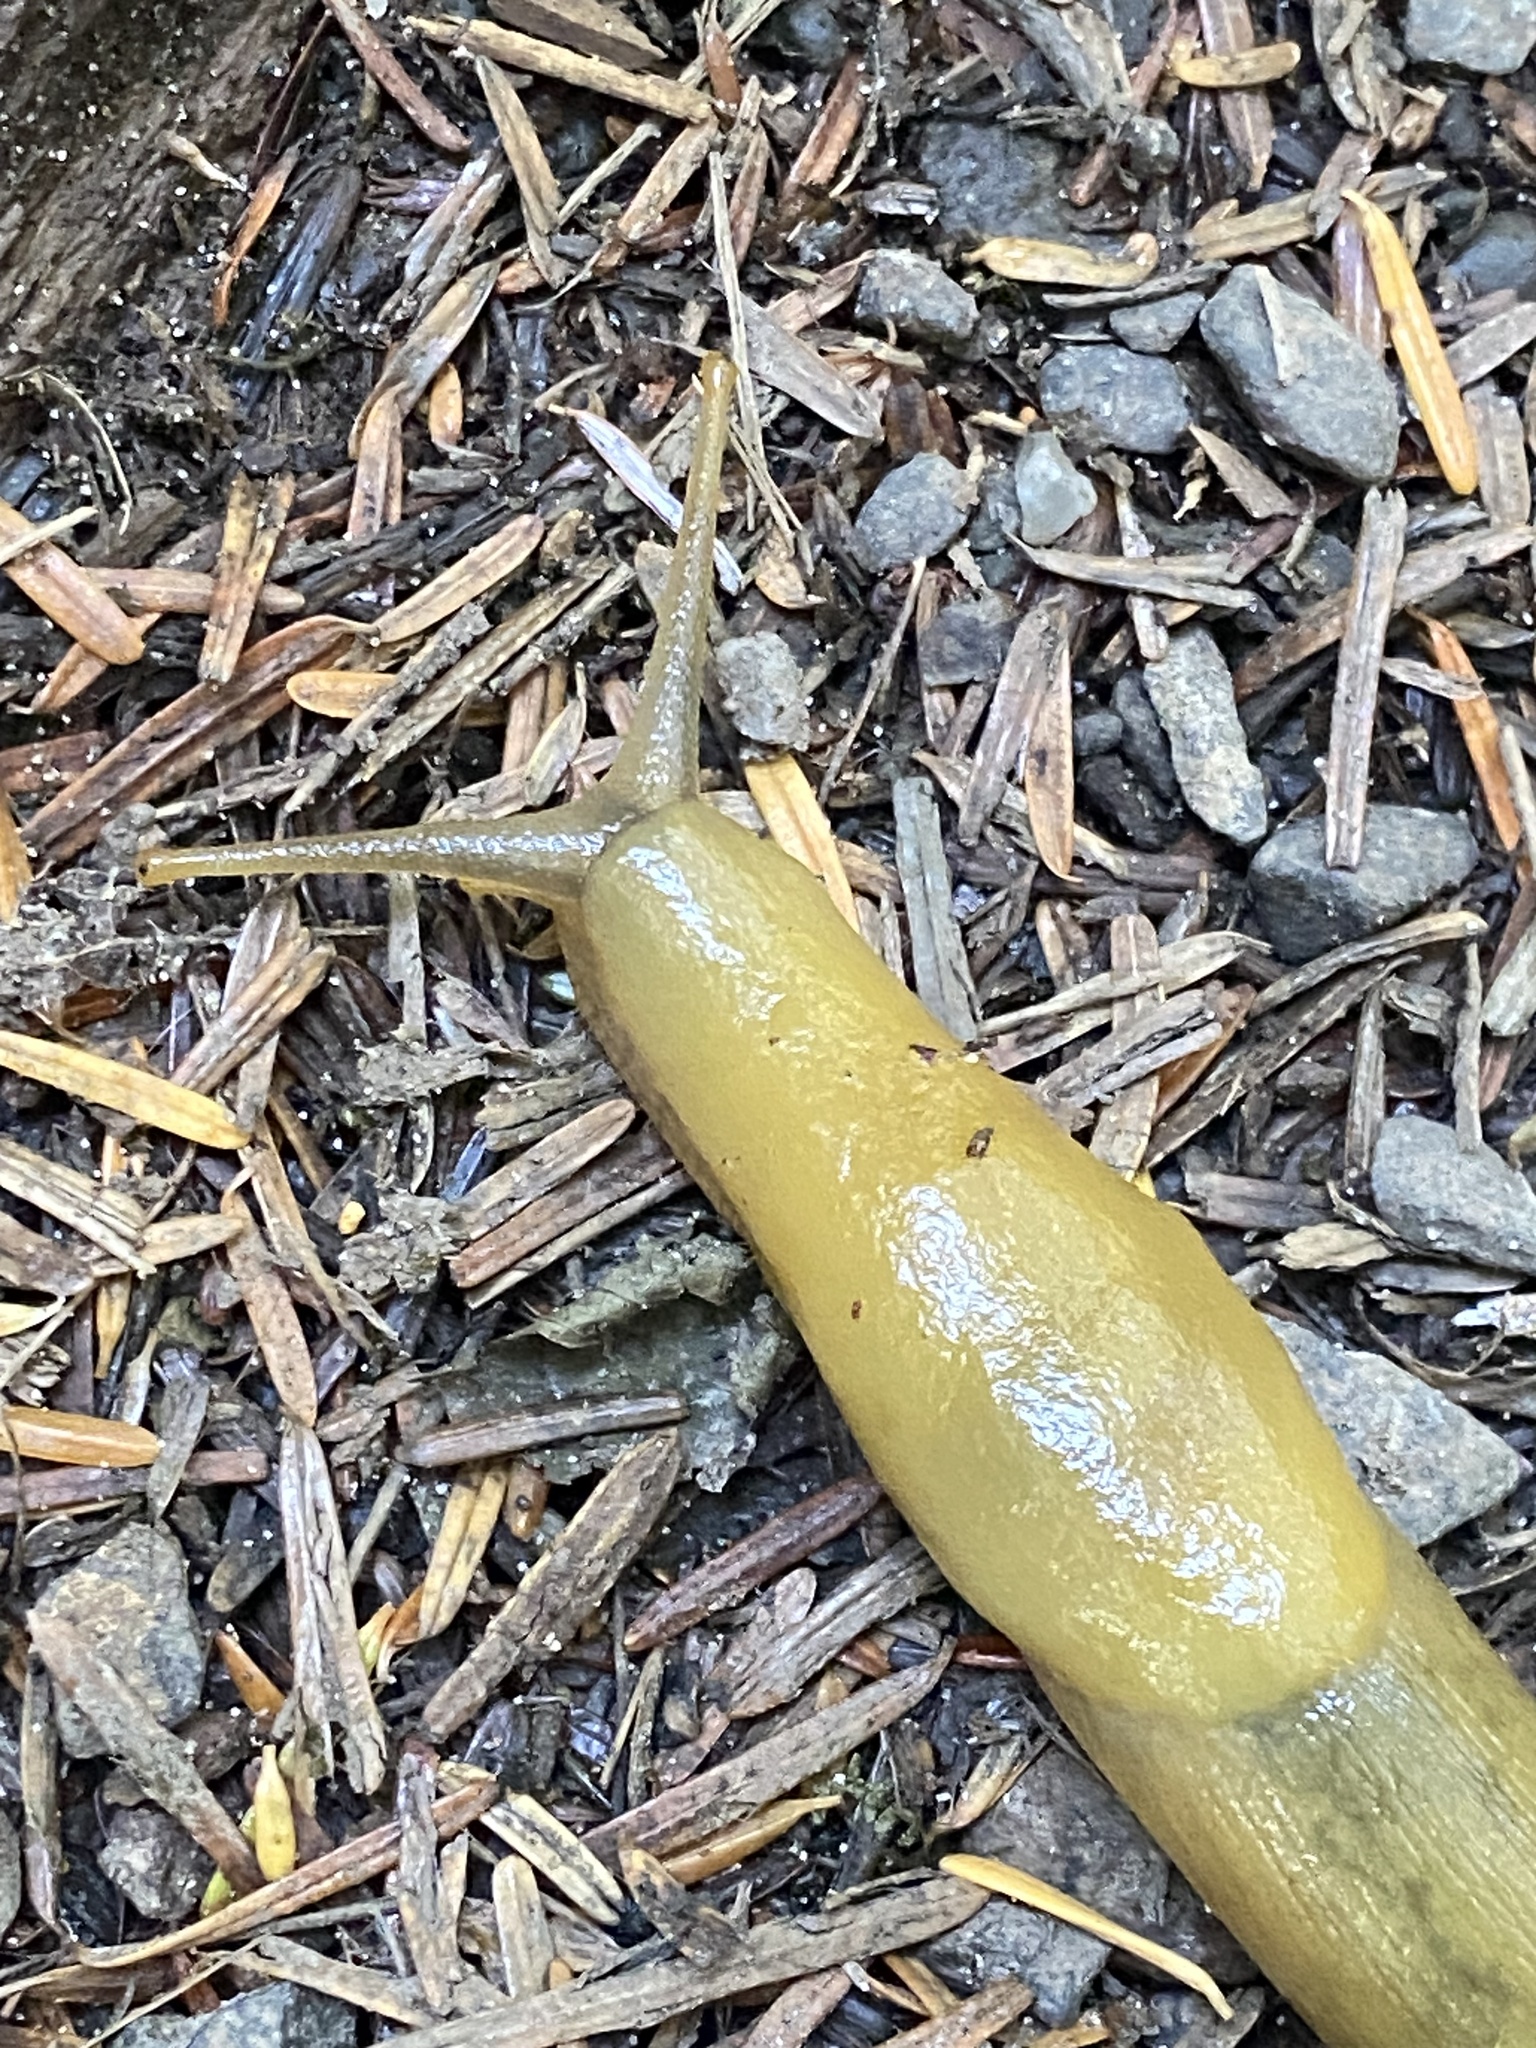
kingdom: Animalia
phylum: Mollusca
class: Gastropoda
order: Stylommatophora
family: Ariolimacidae
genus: Ariolimax
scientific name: Ariolimax columbianus
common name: Pacific banana slug
